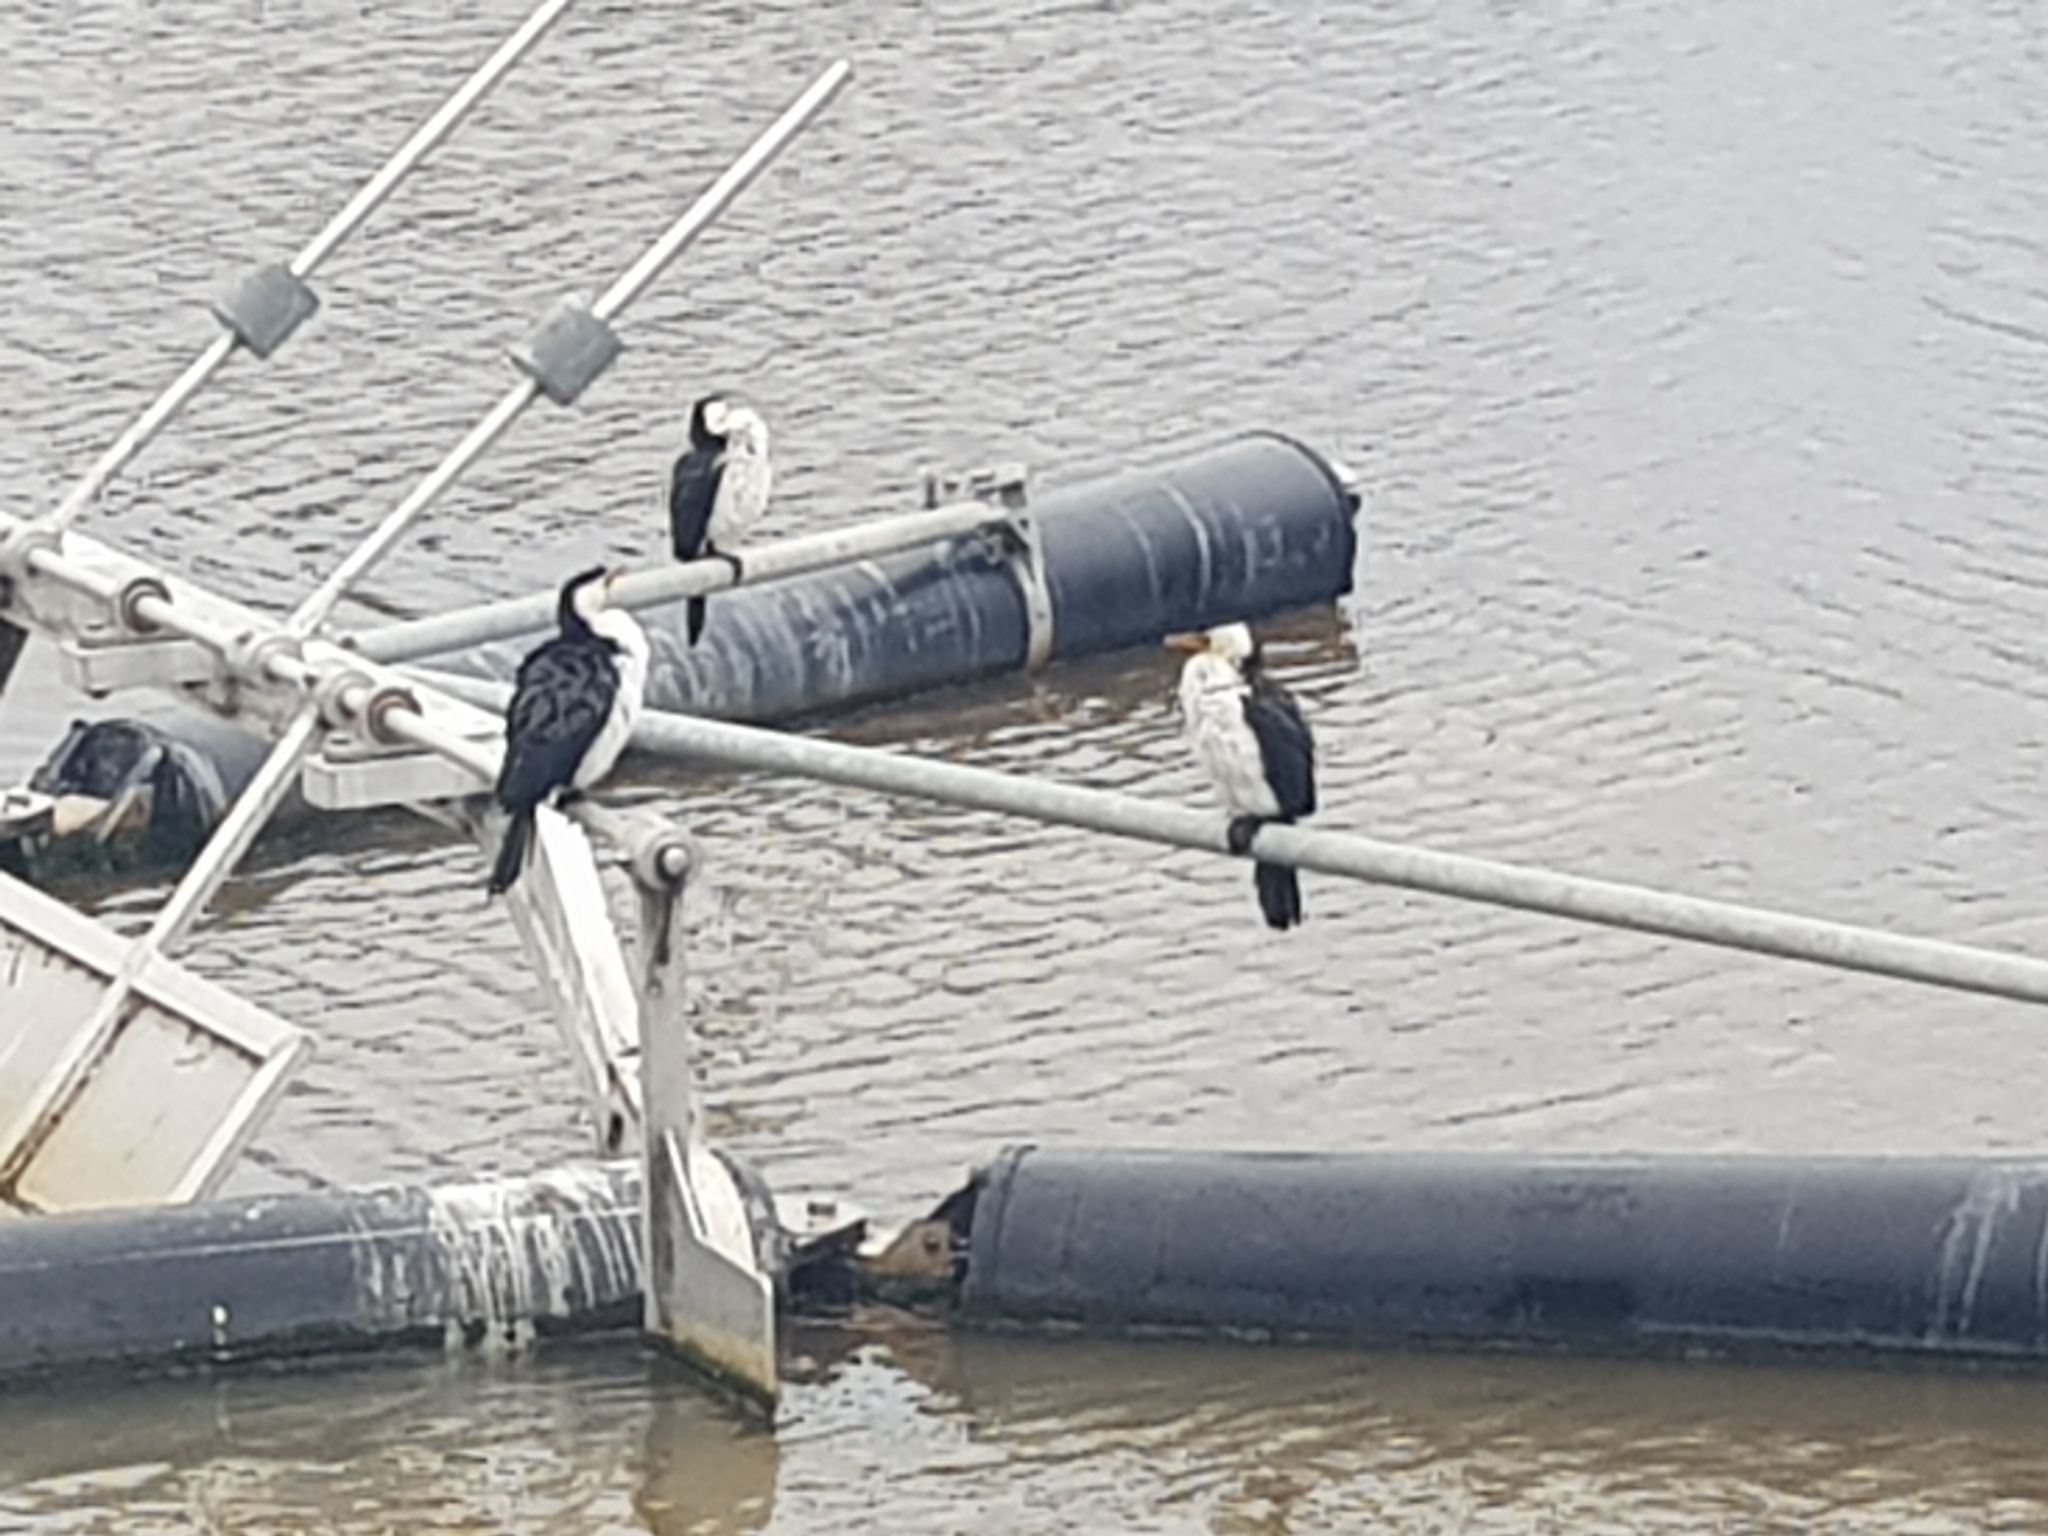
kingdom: Animalia
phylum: Chordata
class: Aves
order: Suliformes
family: Phalacrocoracidae
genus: Microcarbo
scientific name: Microcarbo melanoleucos
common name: Little pied cormorant
